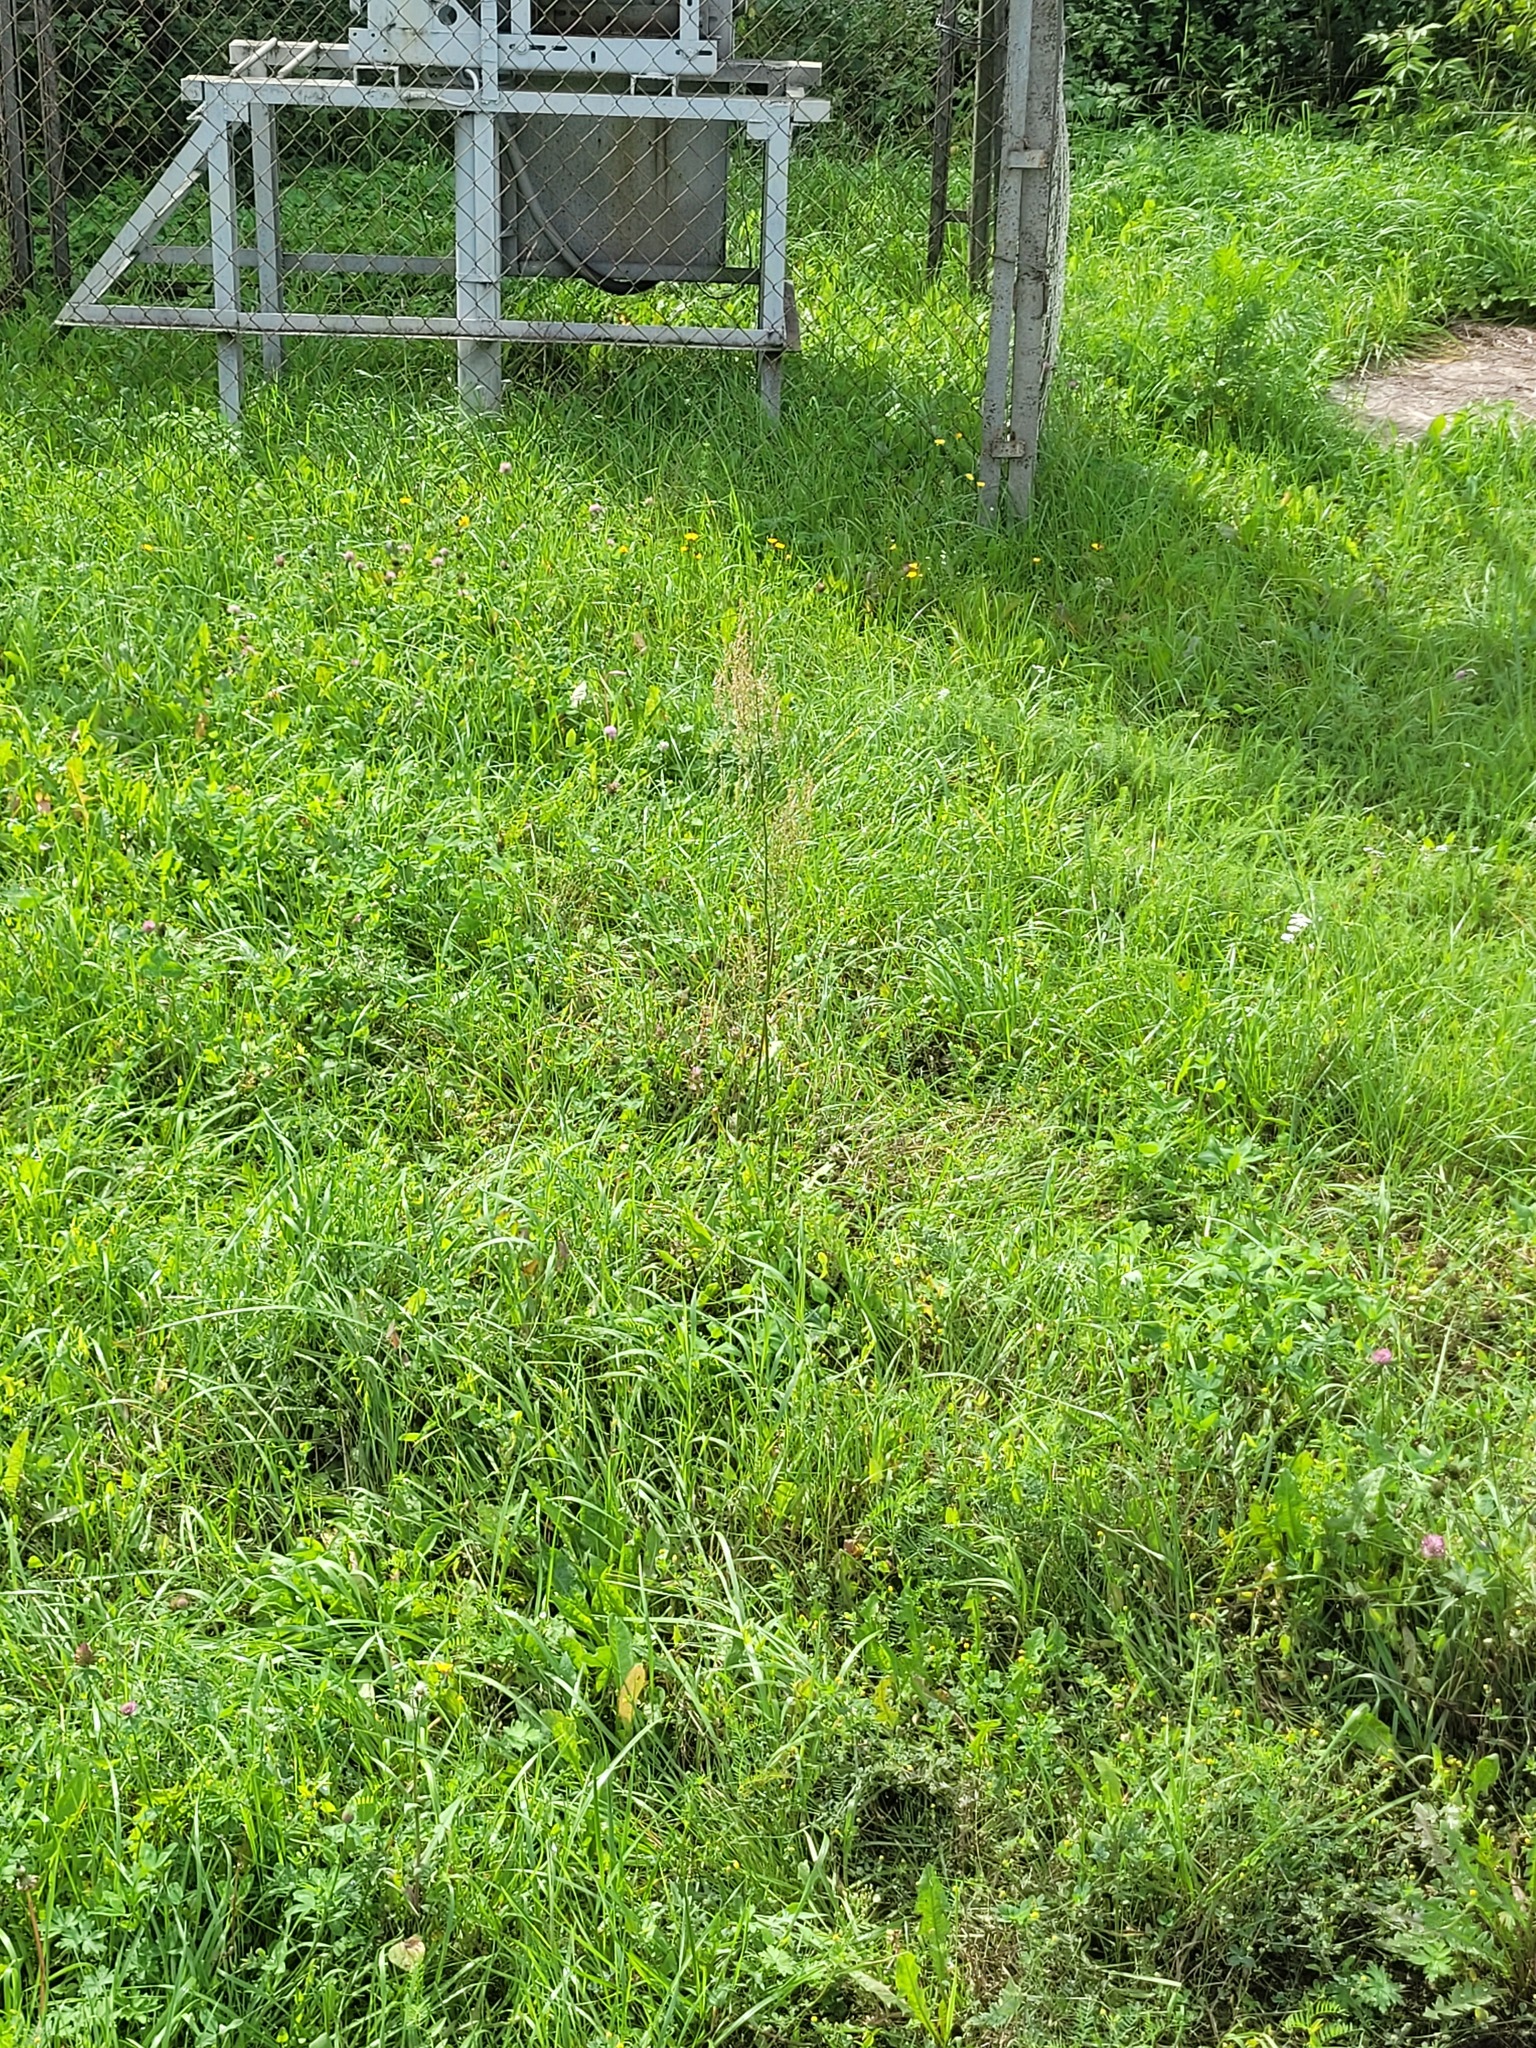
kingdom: Plantae
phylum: Tracheophyta
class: Magnoliopsida
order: Caryophyllales
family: Polygonaceae
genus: Rumex
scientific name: Rumex thyrsiflorus
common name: Garden sorrel
